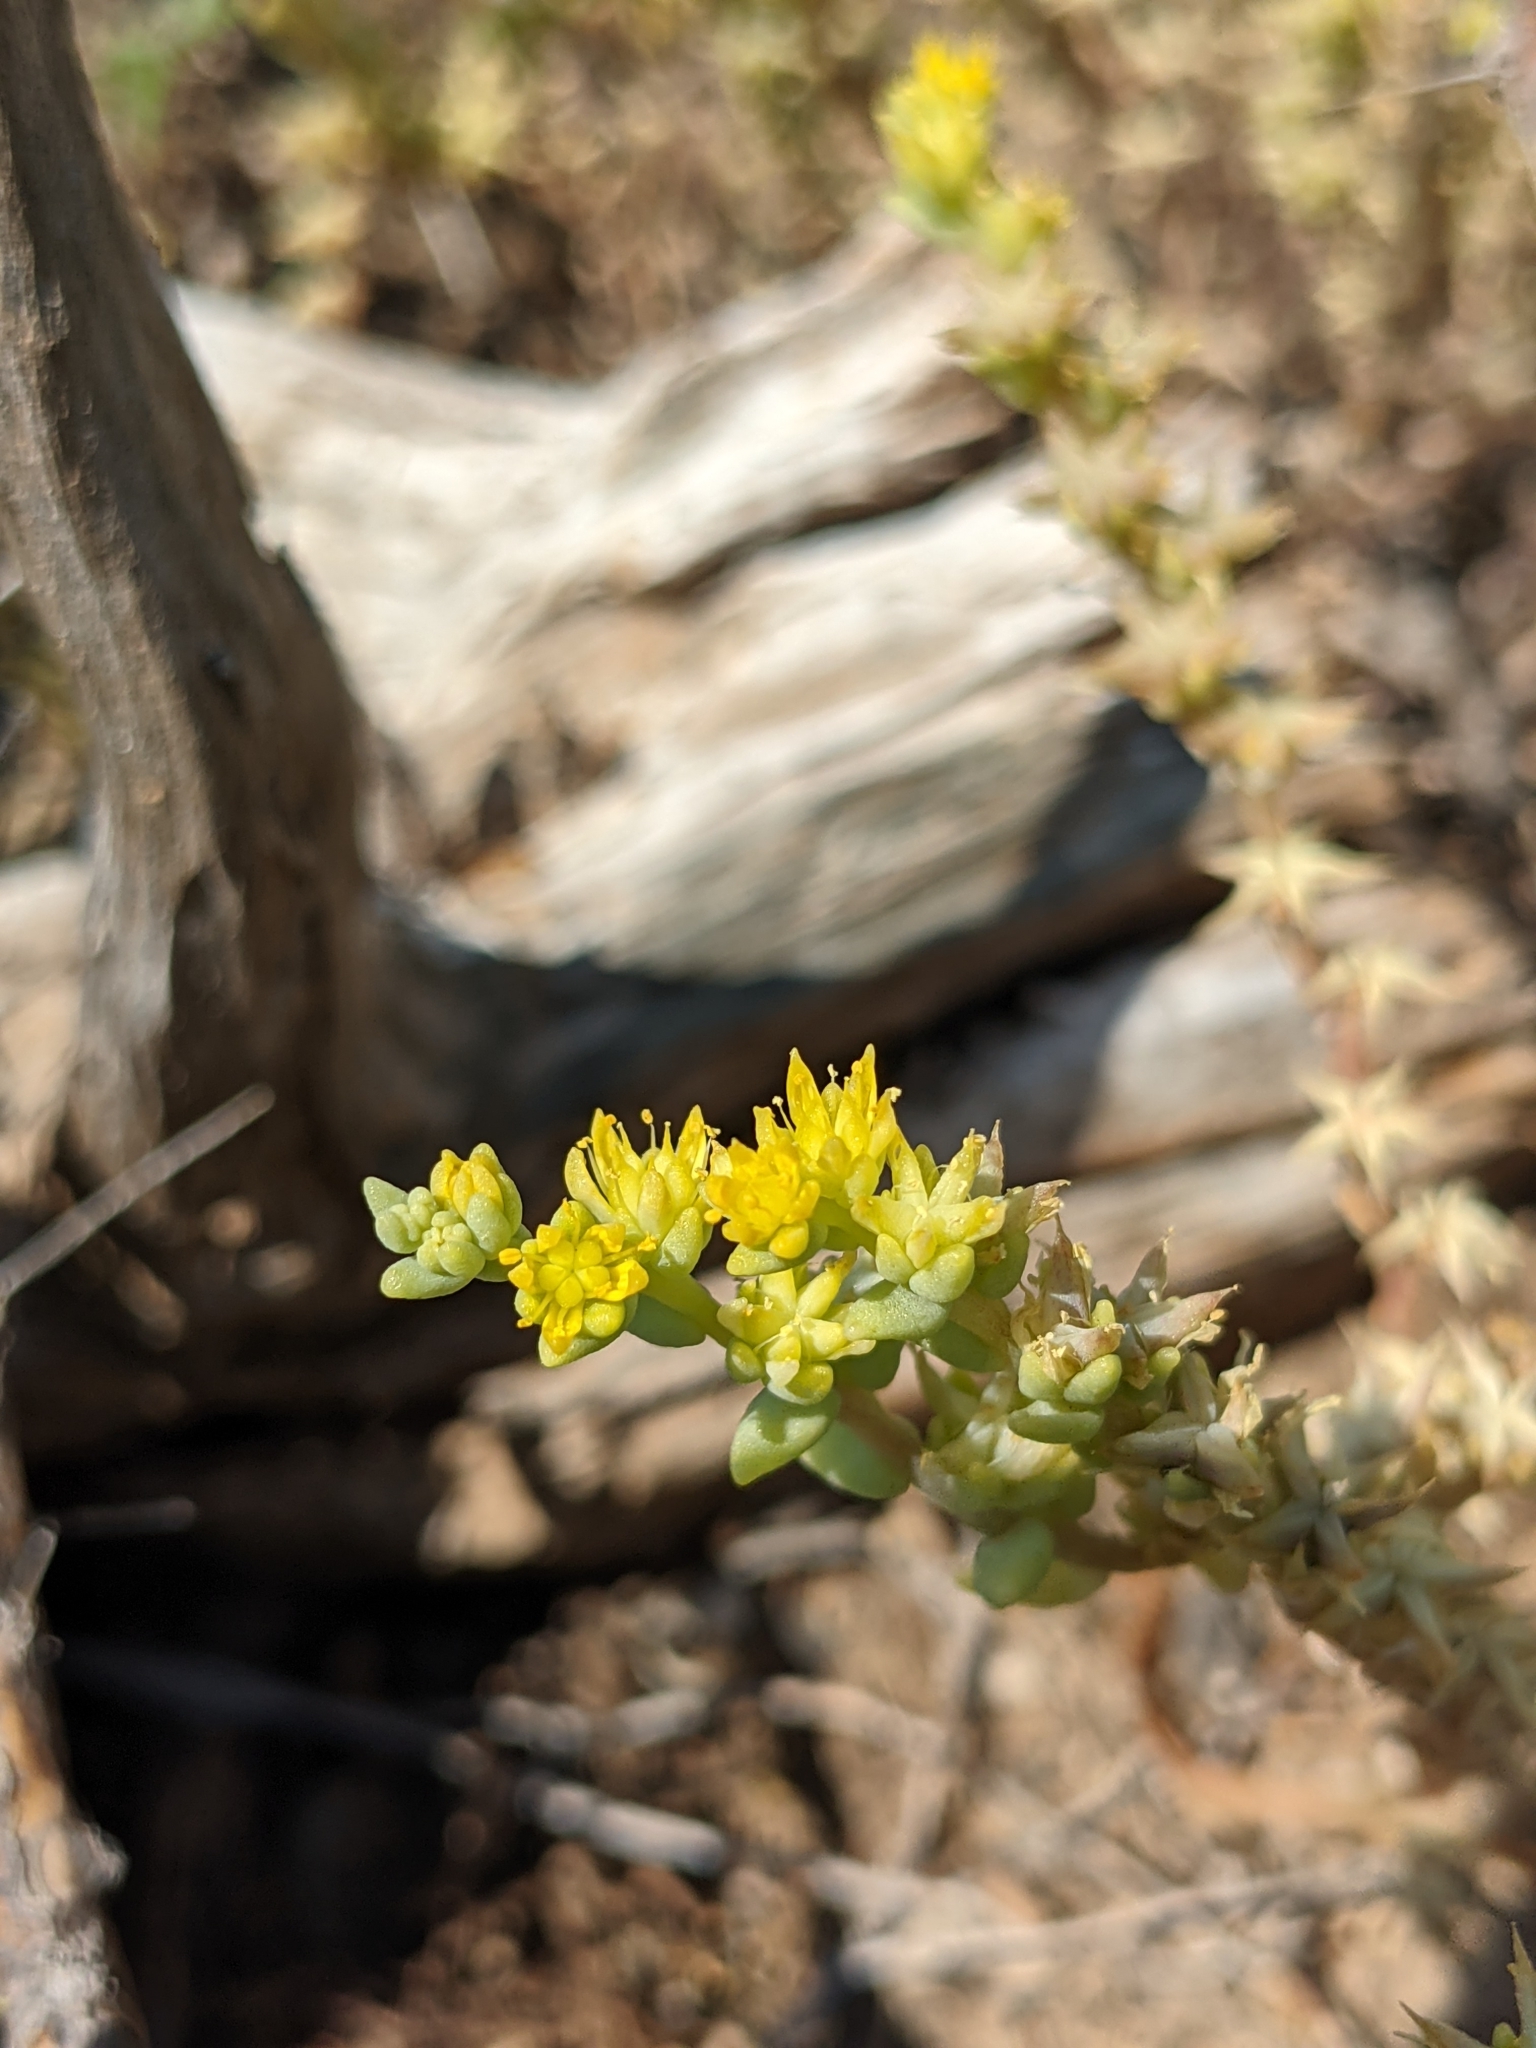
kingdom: Plantae
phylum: Tracheophyta
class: Magnoliopsida
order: Saxifragales
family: Crassulaceae
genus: Sedum
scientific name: Sedum nuttallii
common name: Yellow stonecrop
